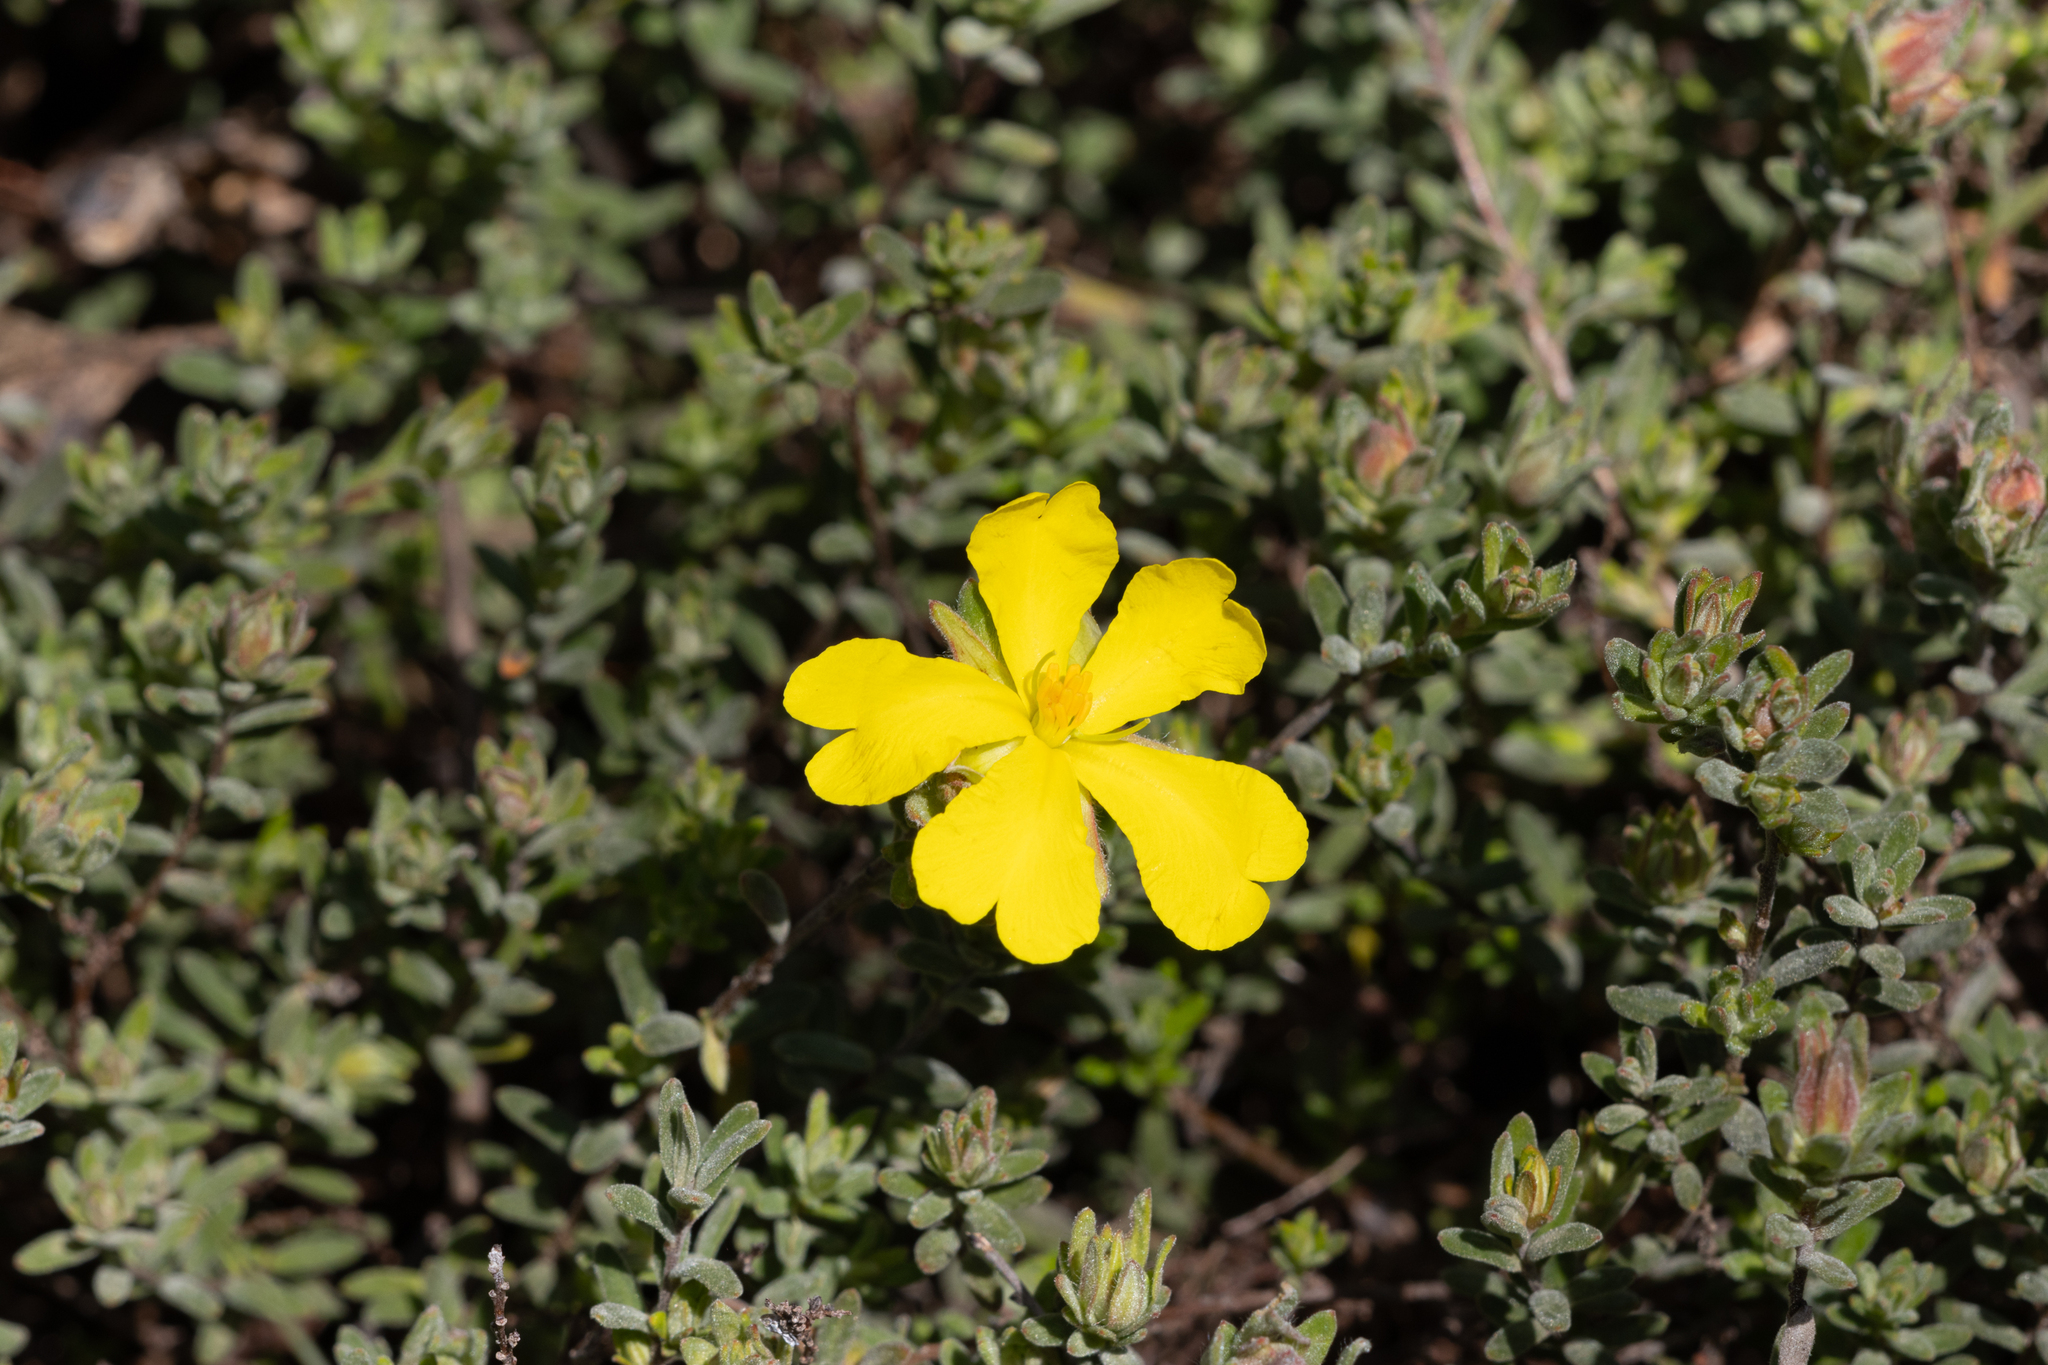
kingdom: Plantae
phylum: Tracheophyta
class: Magnoliopsida
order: Dilleniales
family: Dilleniaceae
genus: Hibbertia
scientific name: Hibbertia crinita
